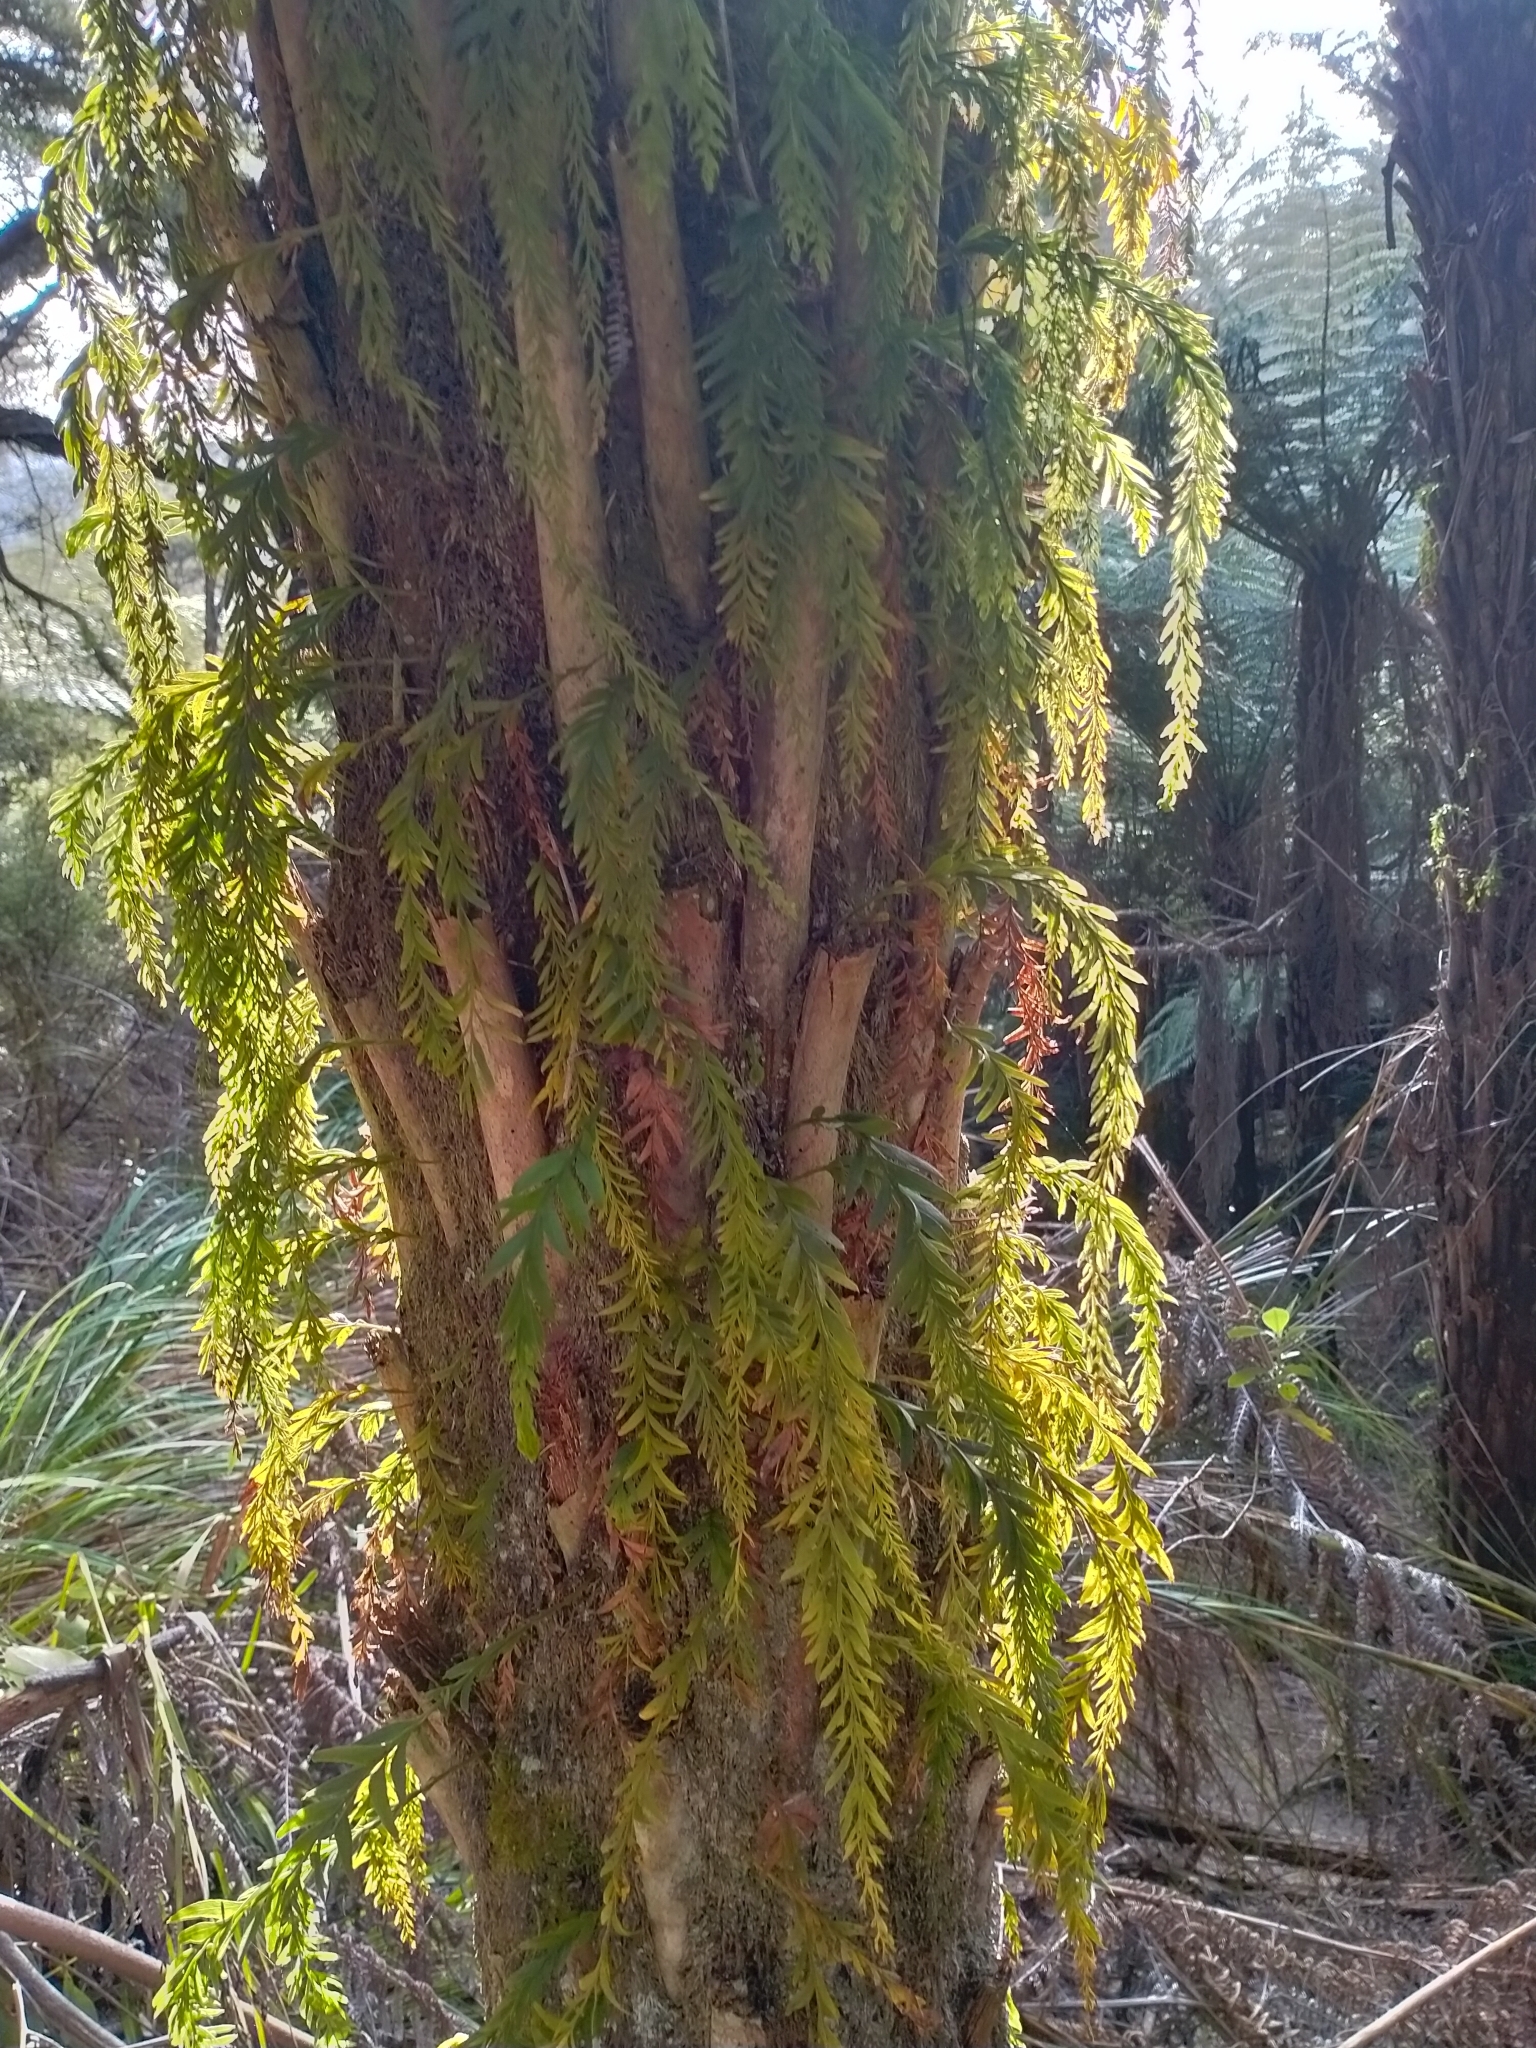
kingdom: Plantae
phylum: Tracheophyta
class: Polypodiopsida
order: Psilotales
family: Psilotaceae
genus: Tmesipteris
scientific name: Tmesipteris elongata
